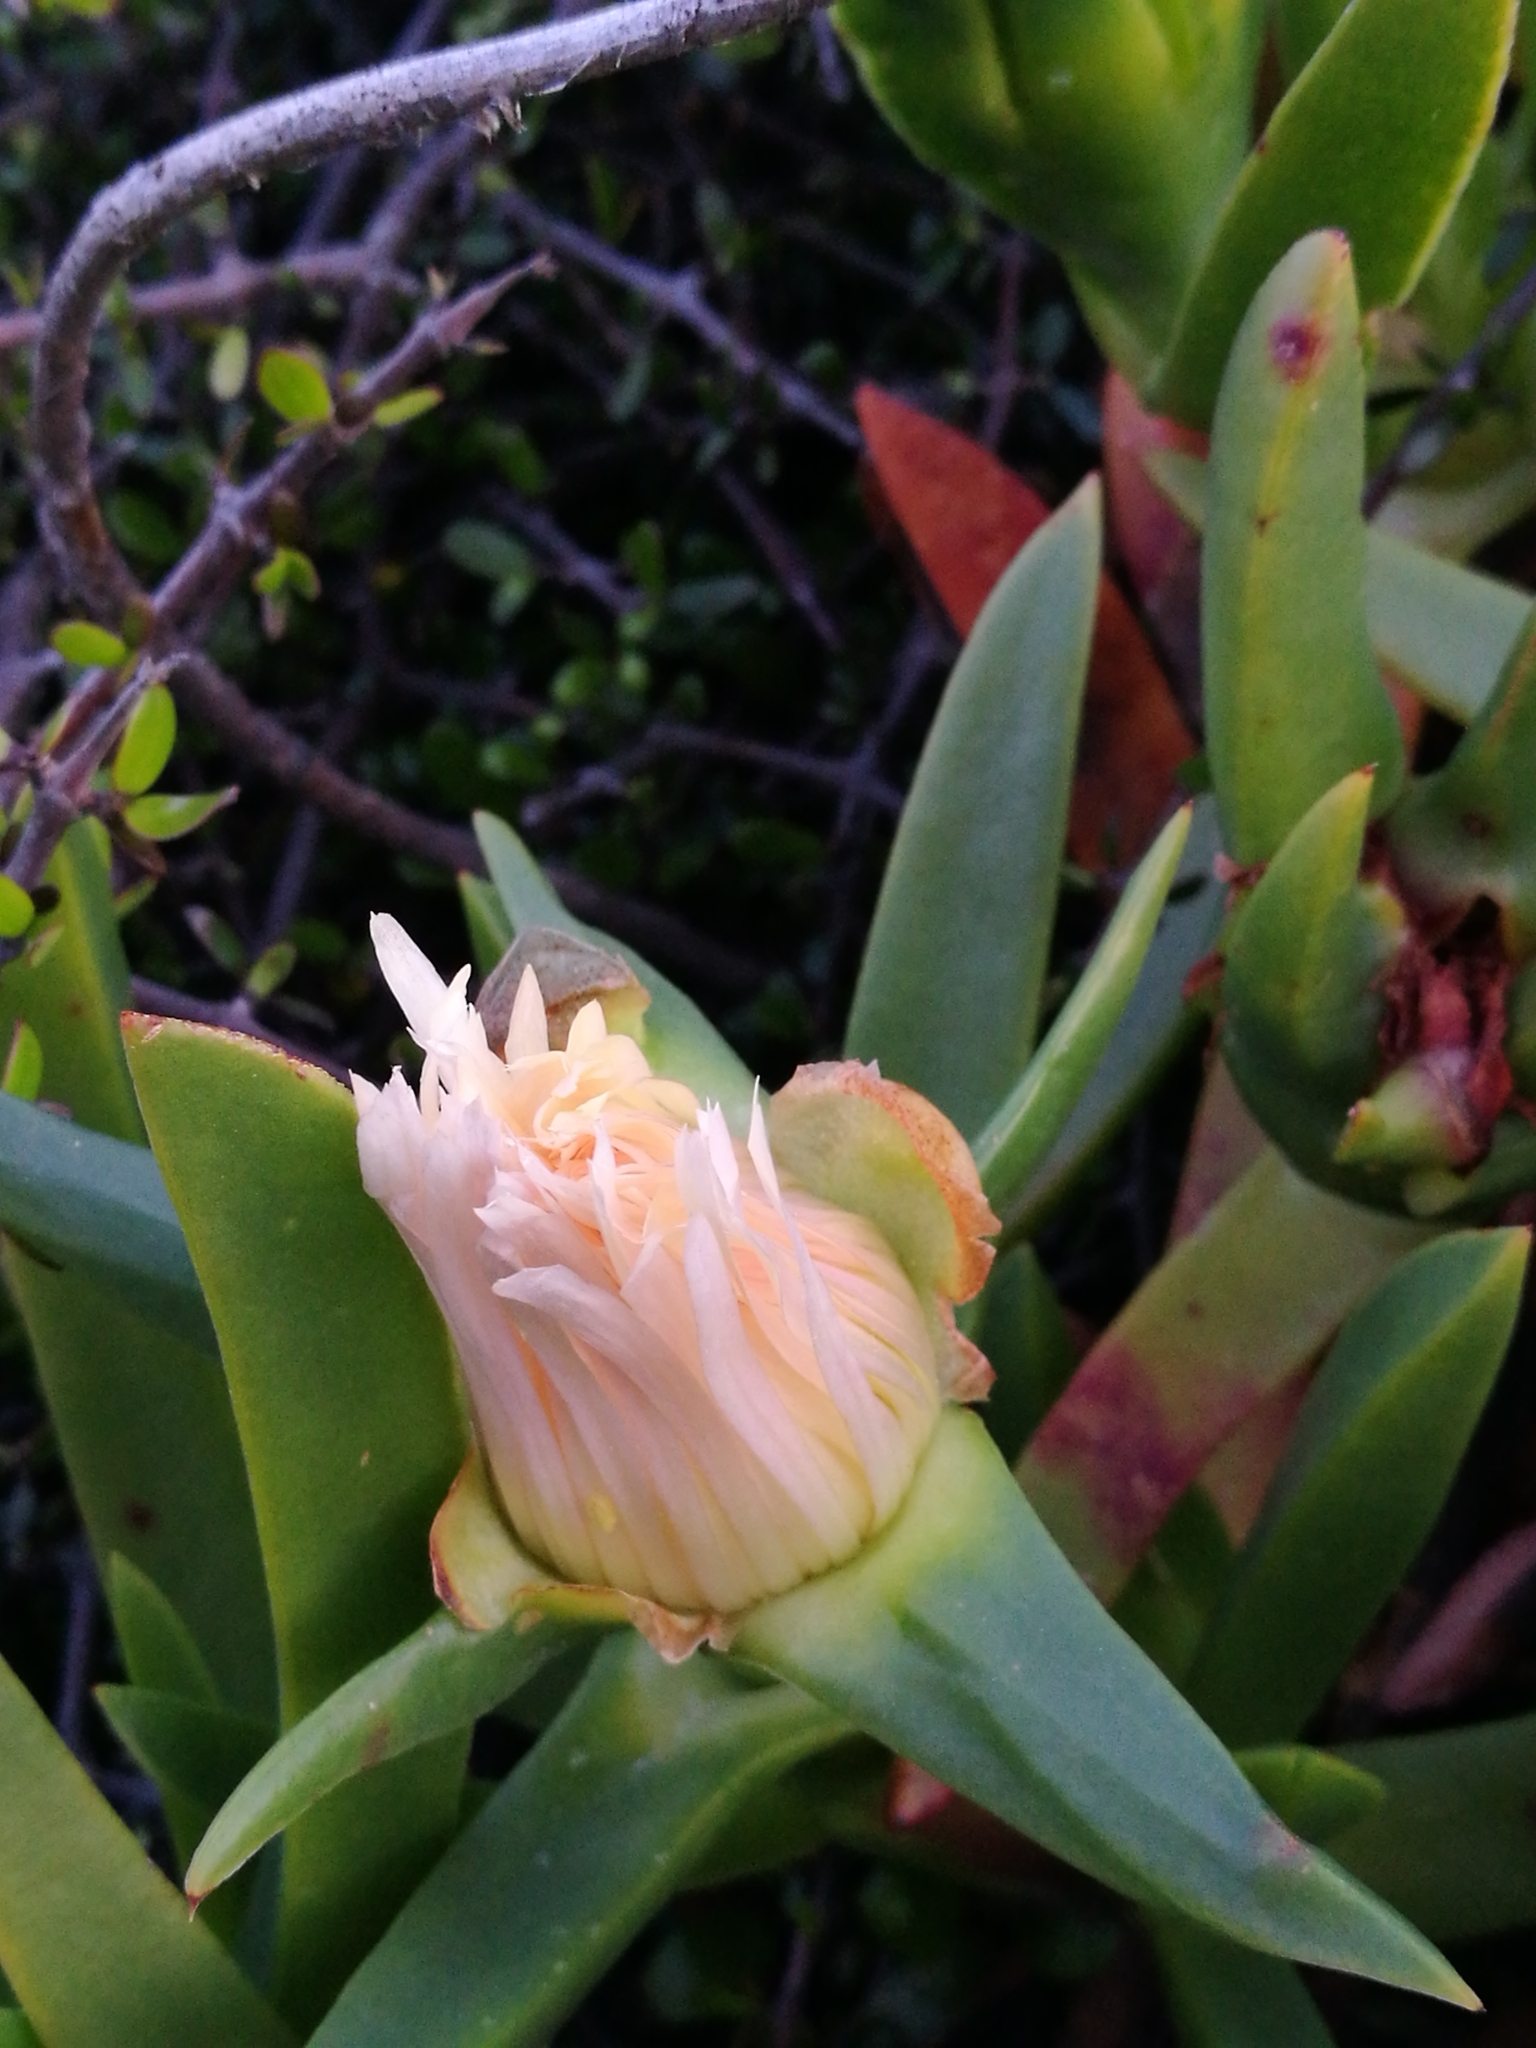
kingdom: Plantae
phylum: Tracheophyta
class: Magnoliopsida
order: Caryophyllales
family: Aizoaceae
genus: Carpobrotus
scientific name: Carpobrotus edulis
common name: Hottentot-fig
